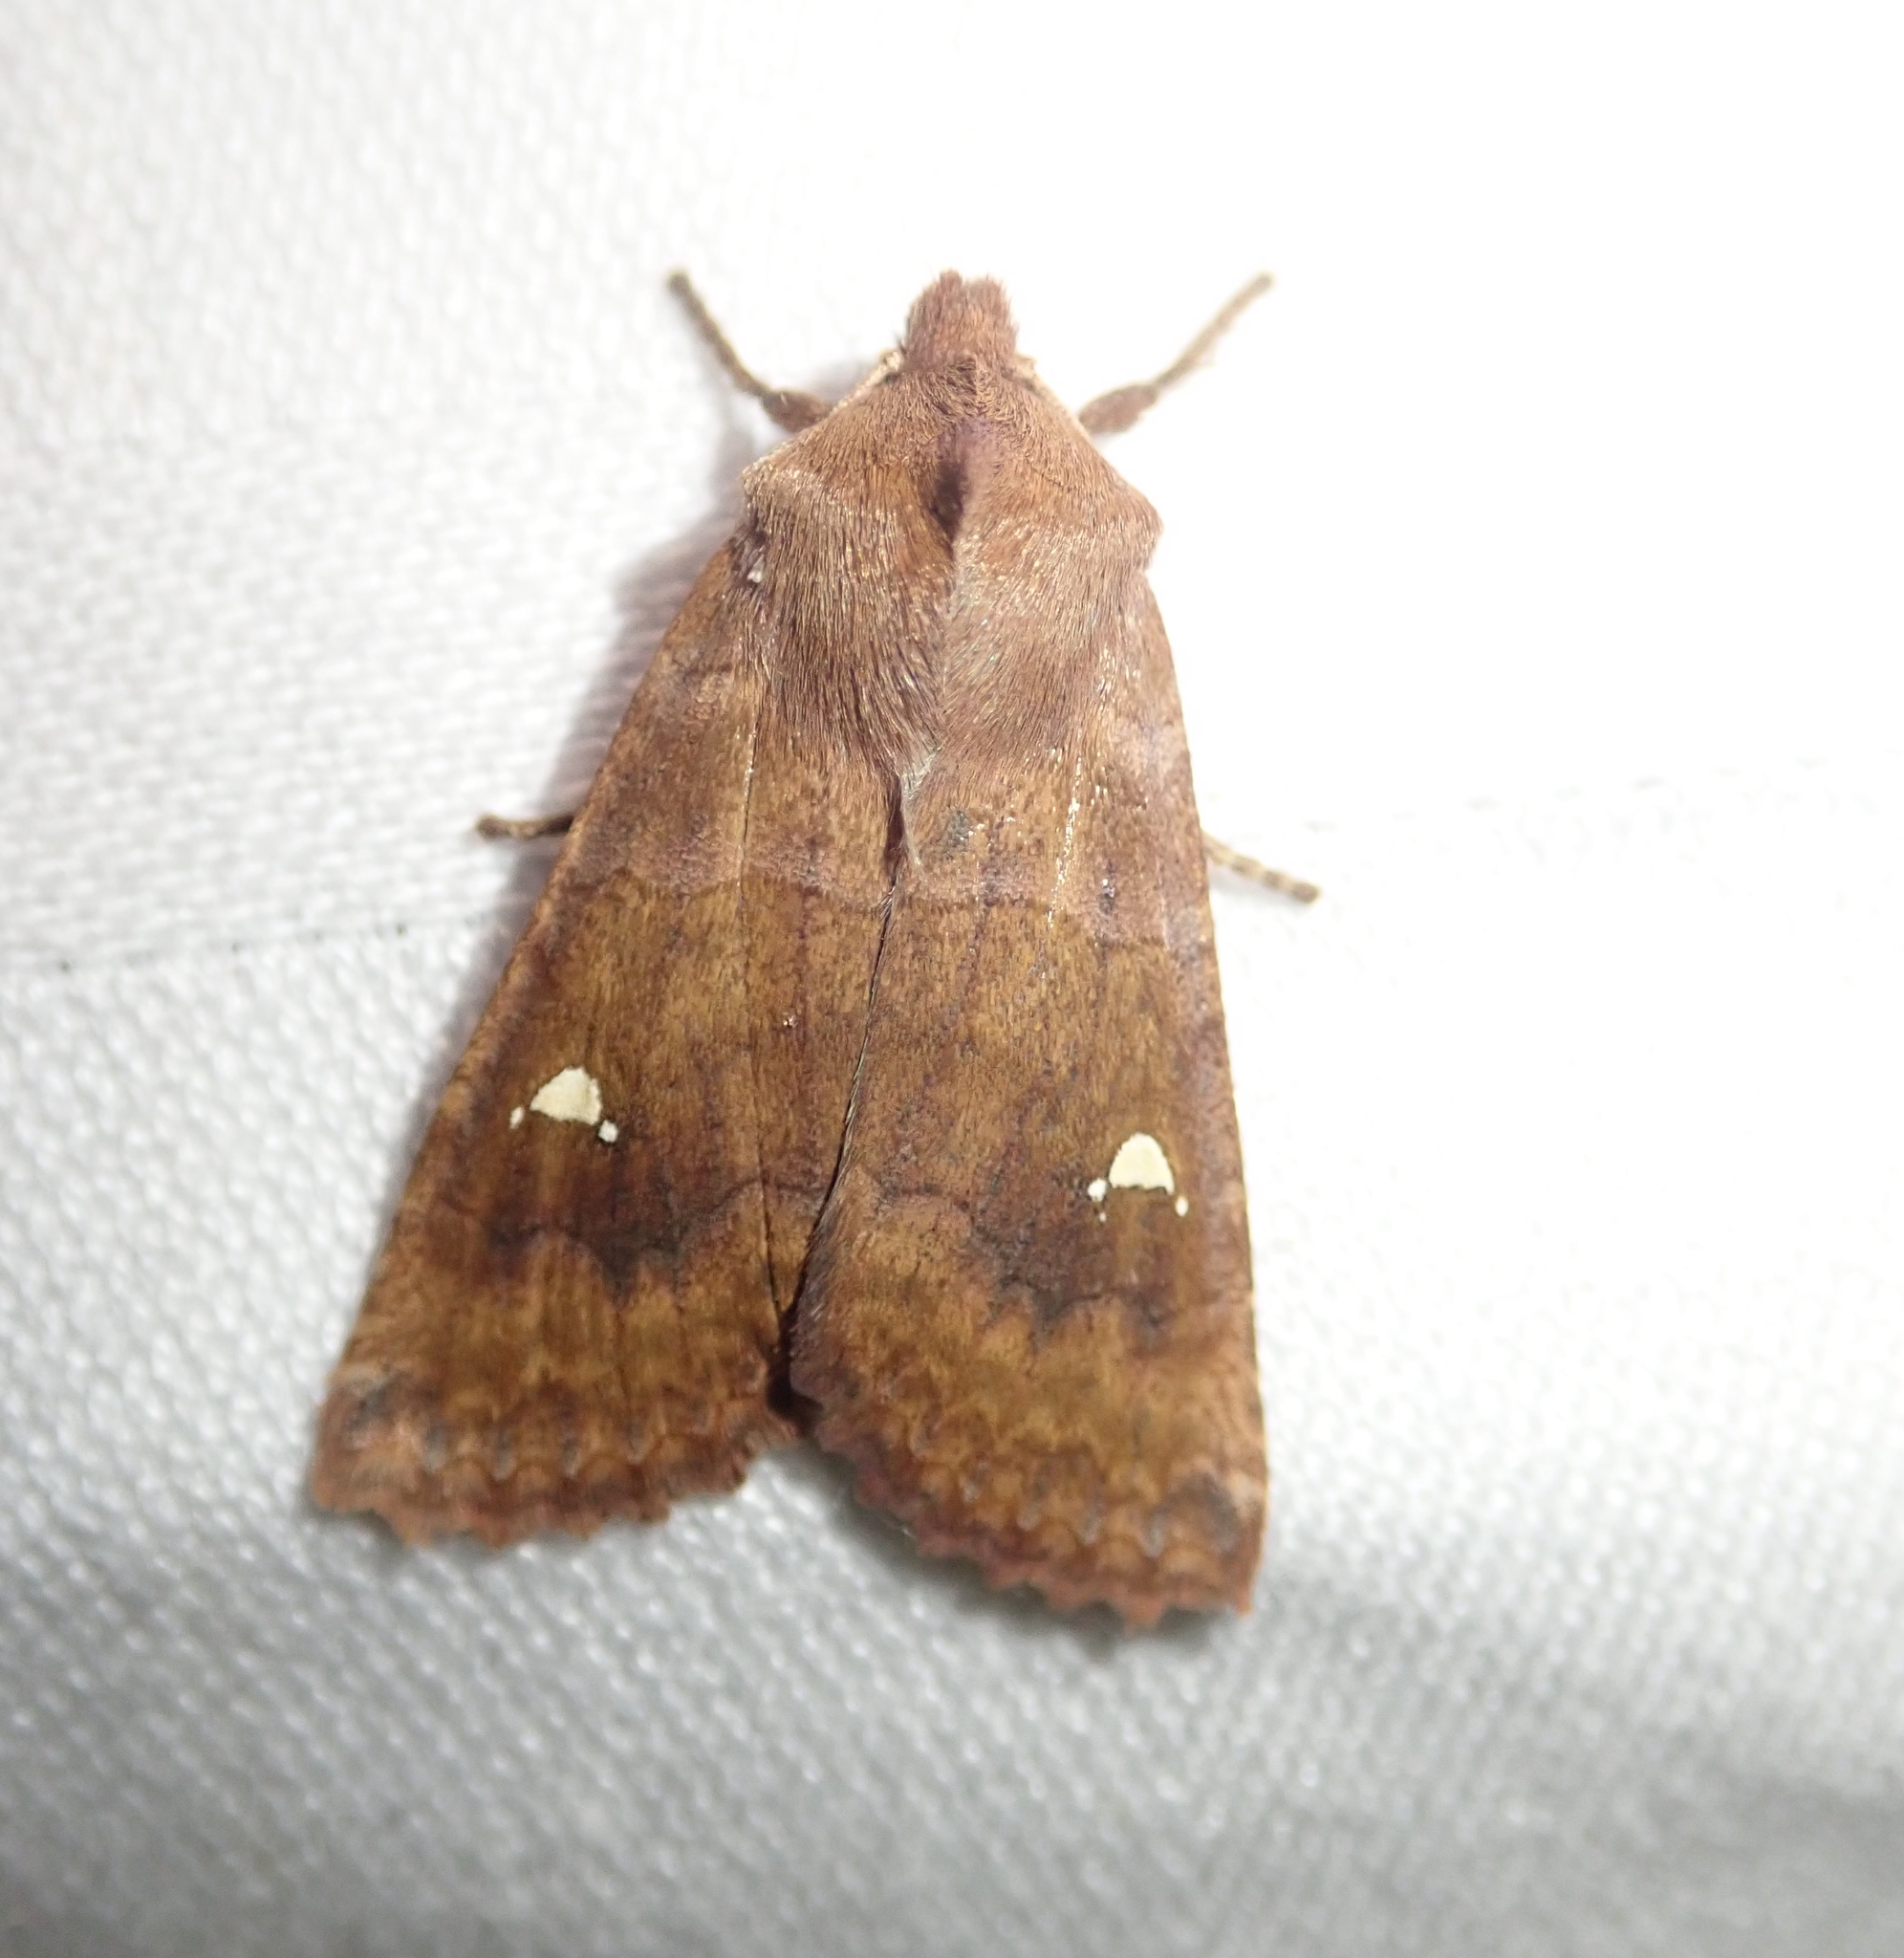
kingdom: Animalia
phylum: Arthropoda
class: Insecta
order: Lepidoptera
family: Noctuidae
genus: Eupsilia
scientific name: Eupsilia transversa
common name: Satellite
